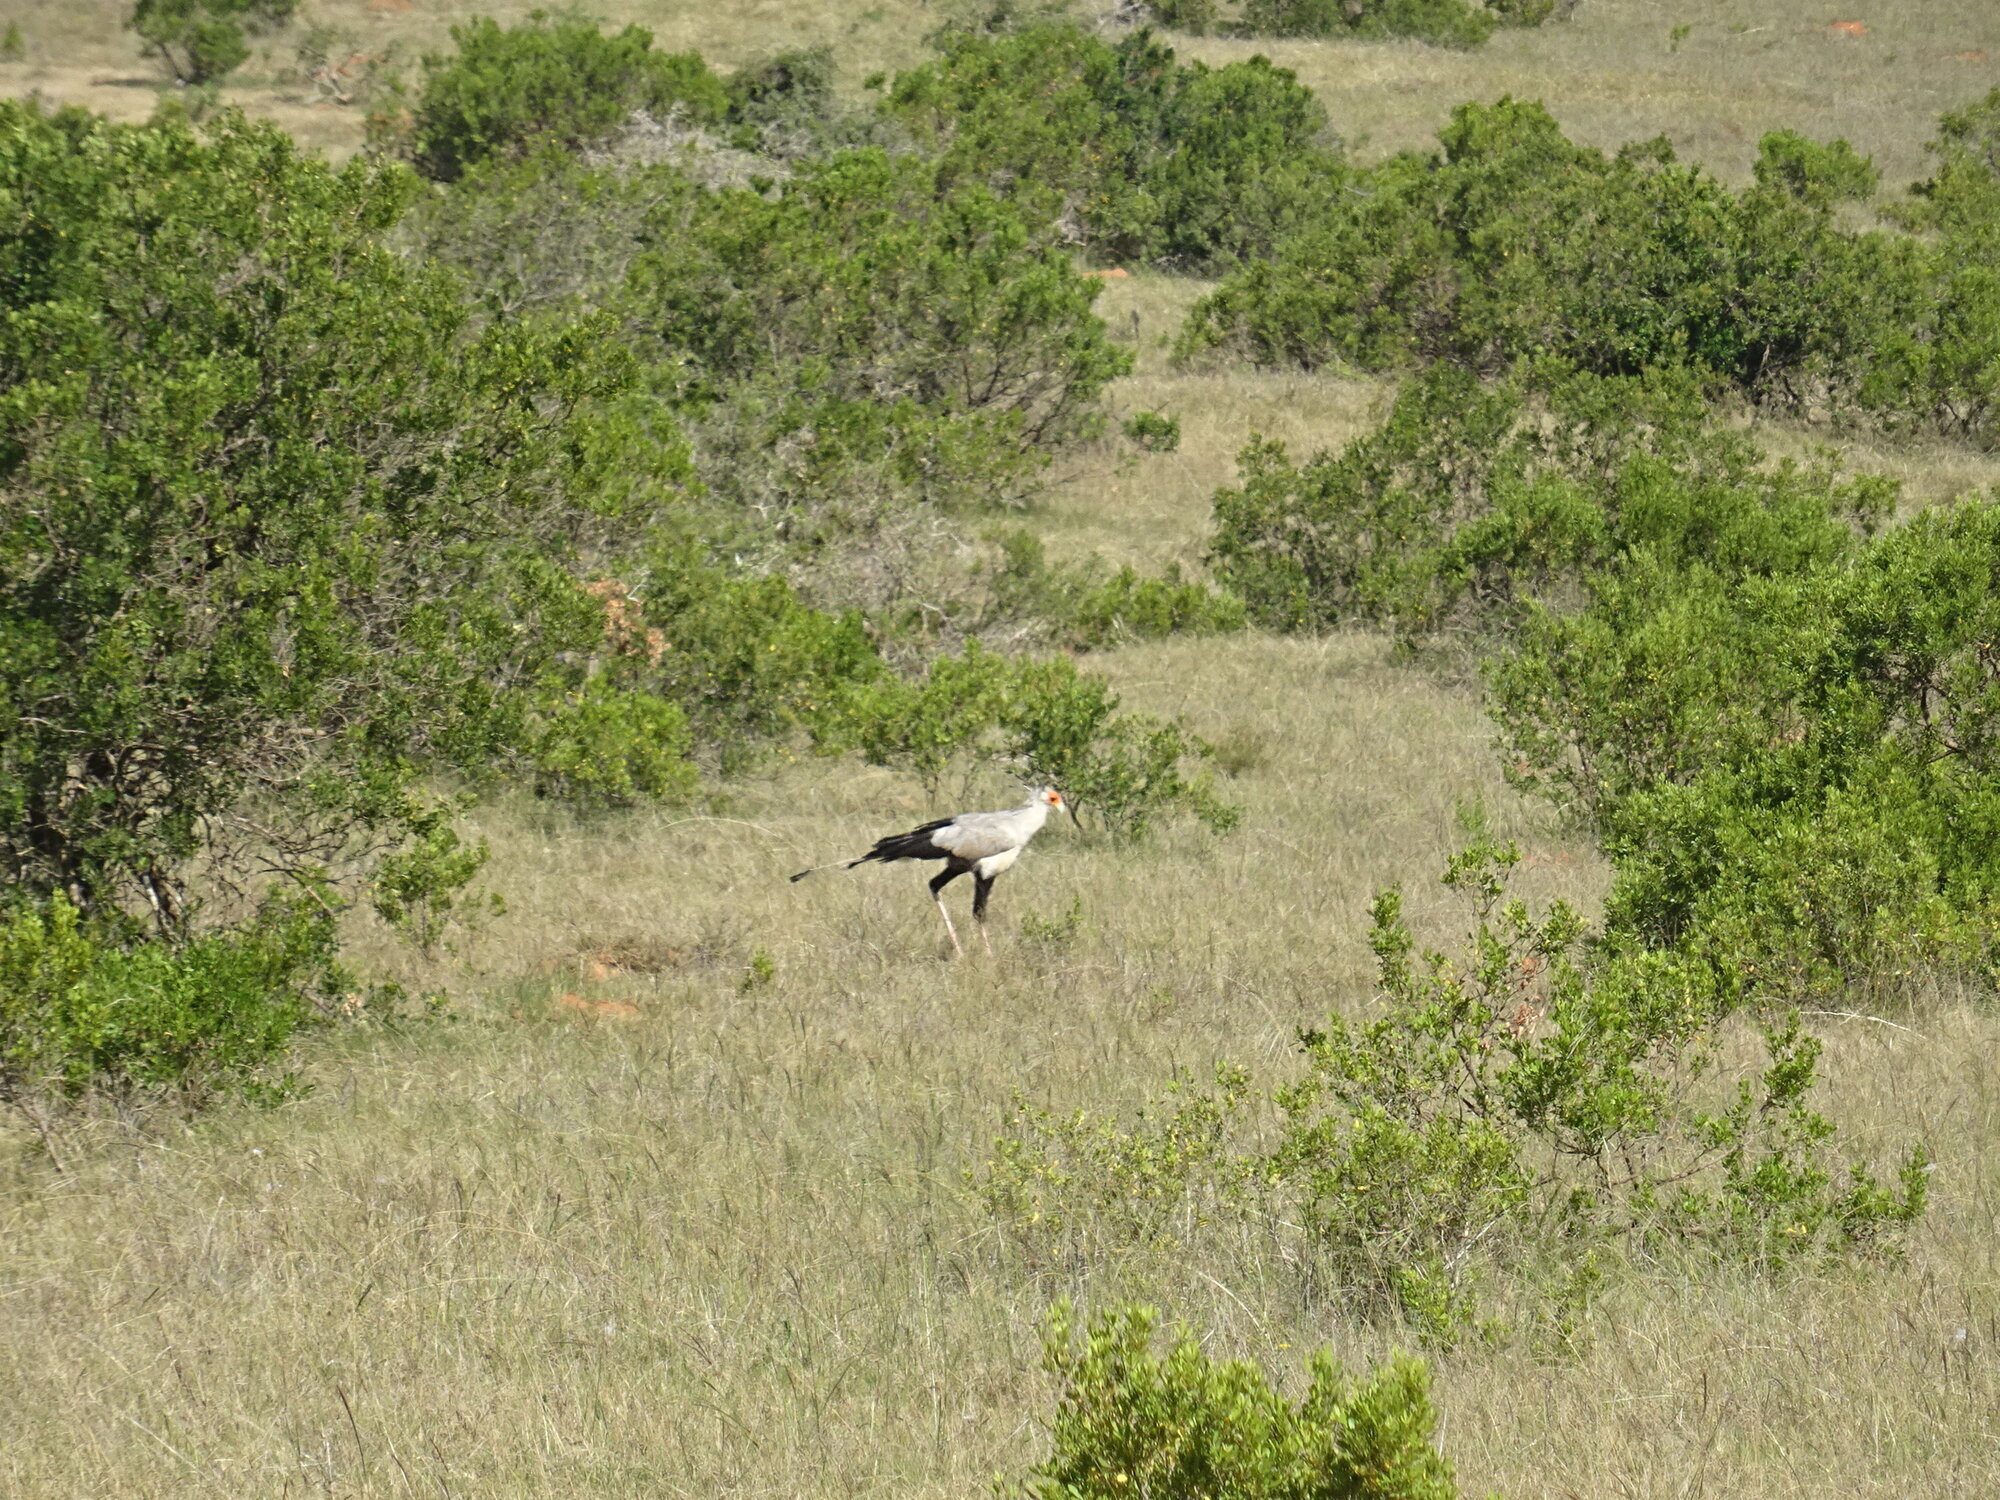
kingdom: Animalia
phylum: Chordata
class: Aves
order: Accipitriformes
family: Sagittariidae
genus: Sagittarius
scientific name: Sagittarius serpentarius
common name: Secretarybird
